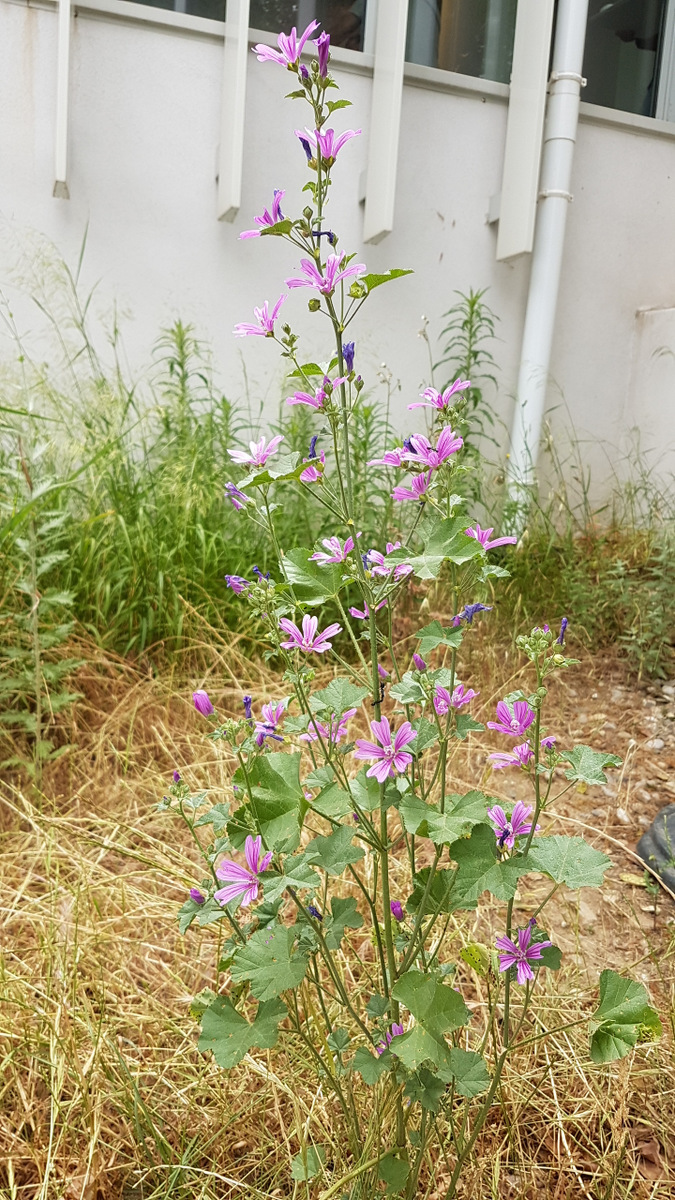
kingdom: Plantae
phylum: Tracheophyta
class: Magnoliopsida
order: Malvales
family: Malvaceae
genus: Malva
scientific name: Malva sylvestris
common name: Common mallow
